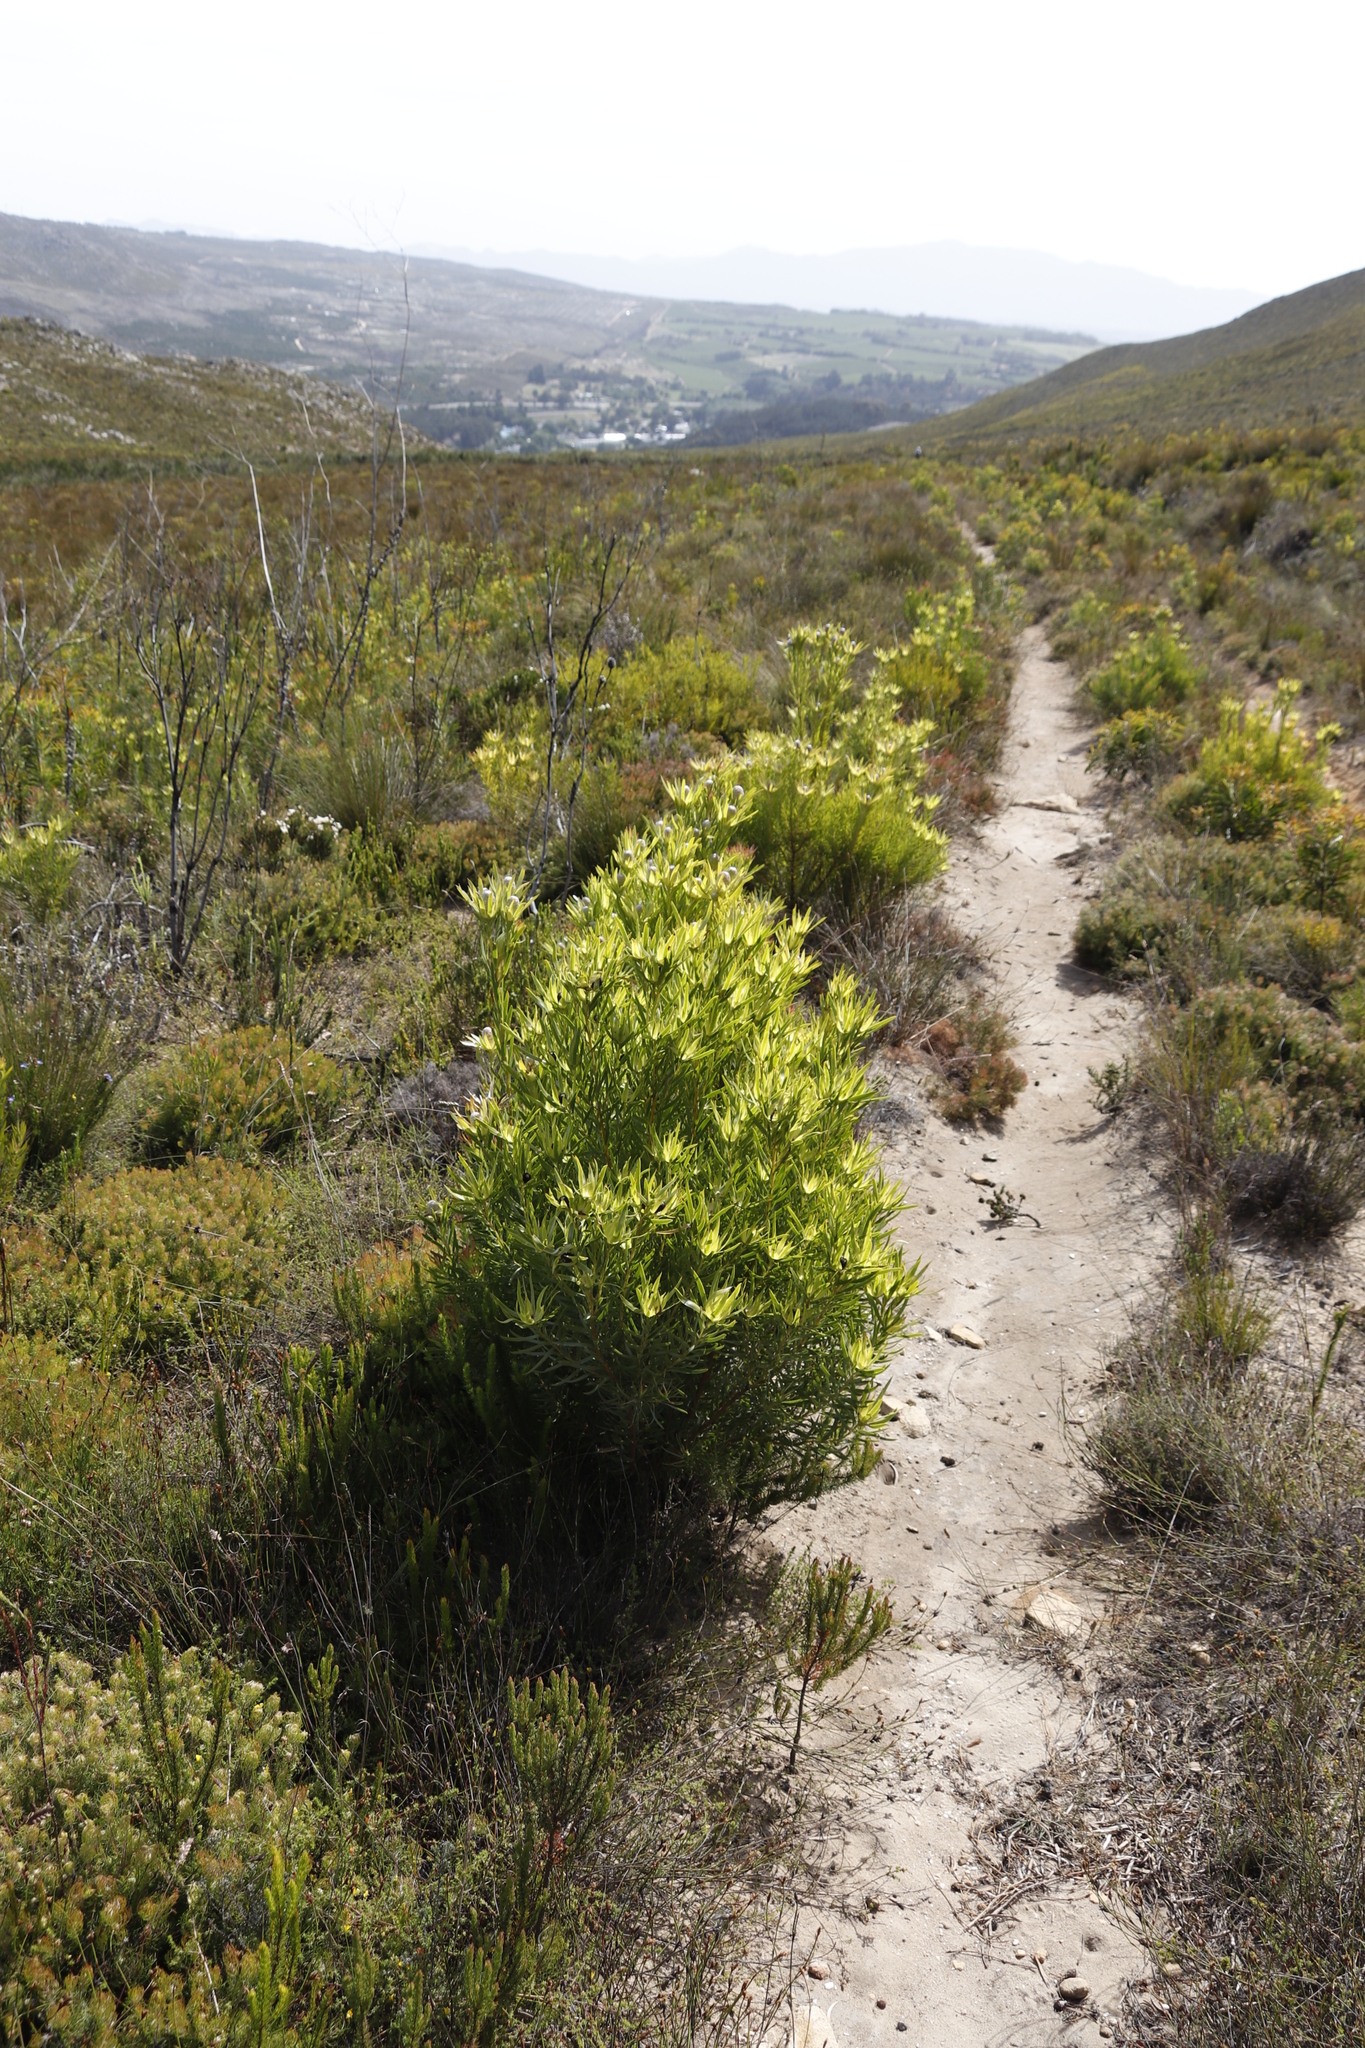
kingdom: Plantae
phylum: Tracheophyta
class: Magnoliopsida
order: Proteales
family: Proteaceae
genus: Leucadendron
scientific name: Leucadendron xanthoconus
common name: Sickle-leaf conebush
